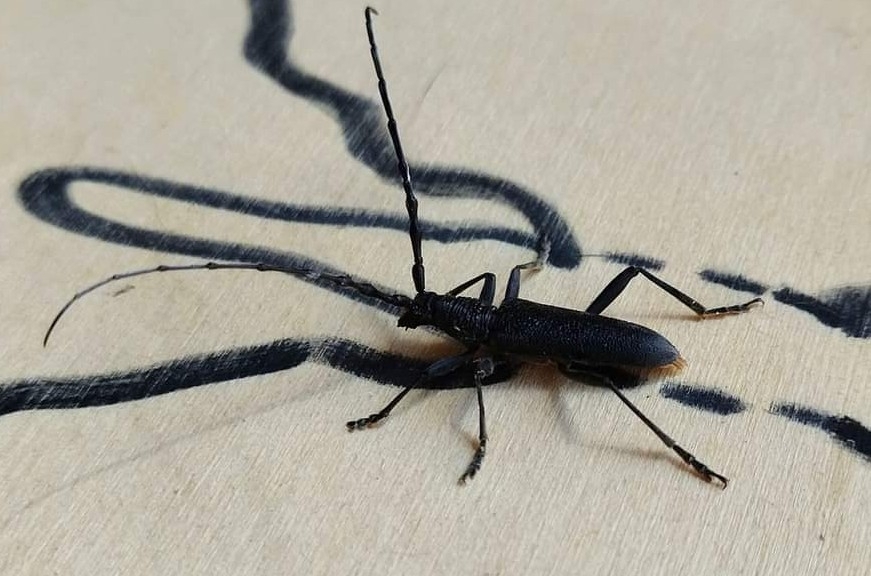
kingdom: Animalia
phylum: Arthropoda
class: Insecta
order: Coleoptera
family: Cerambycidae
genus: Cerambyx
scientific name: Cerambyx scopolii
